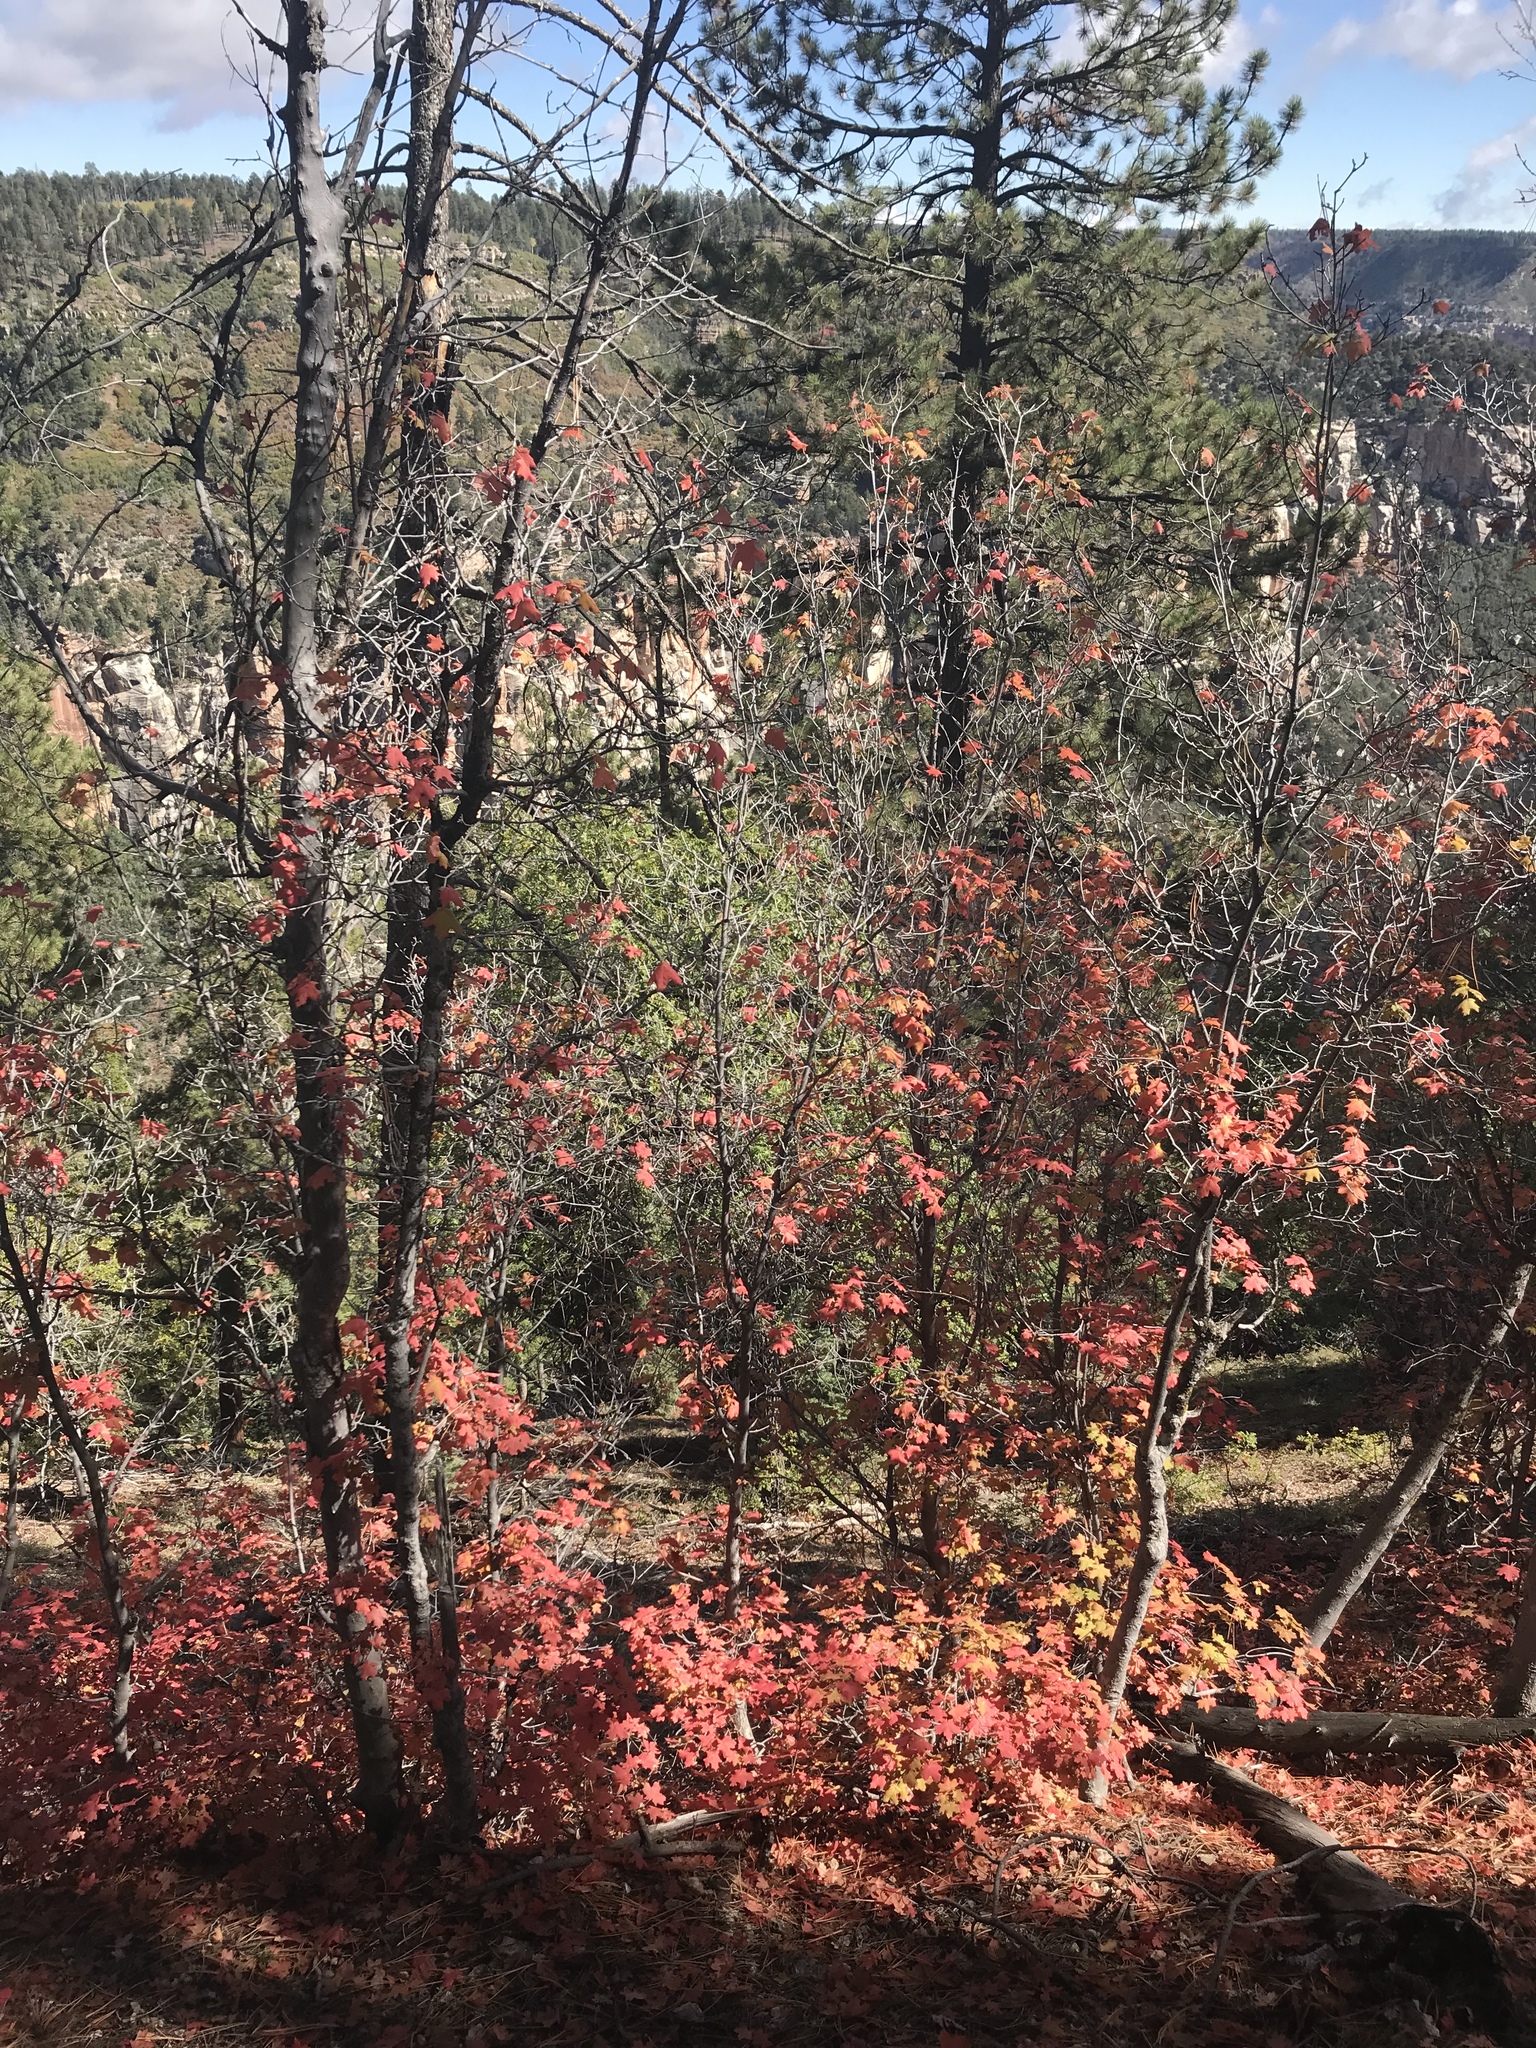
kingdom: Plantae
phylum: Tracheophyta
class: Magnoliopsida
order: Sapindales
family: Sapindaceae
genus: Acer
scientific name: Acer grandidentatum
